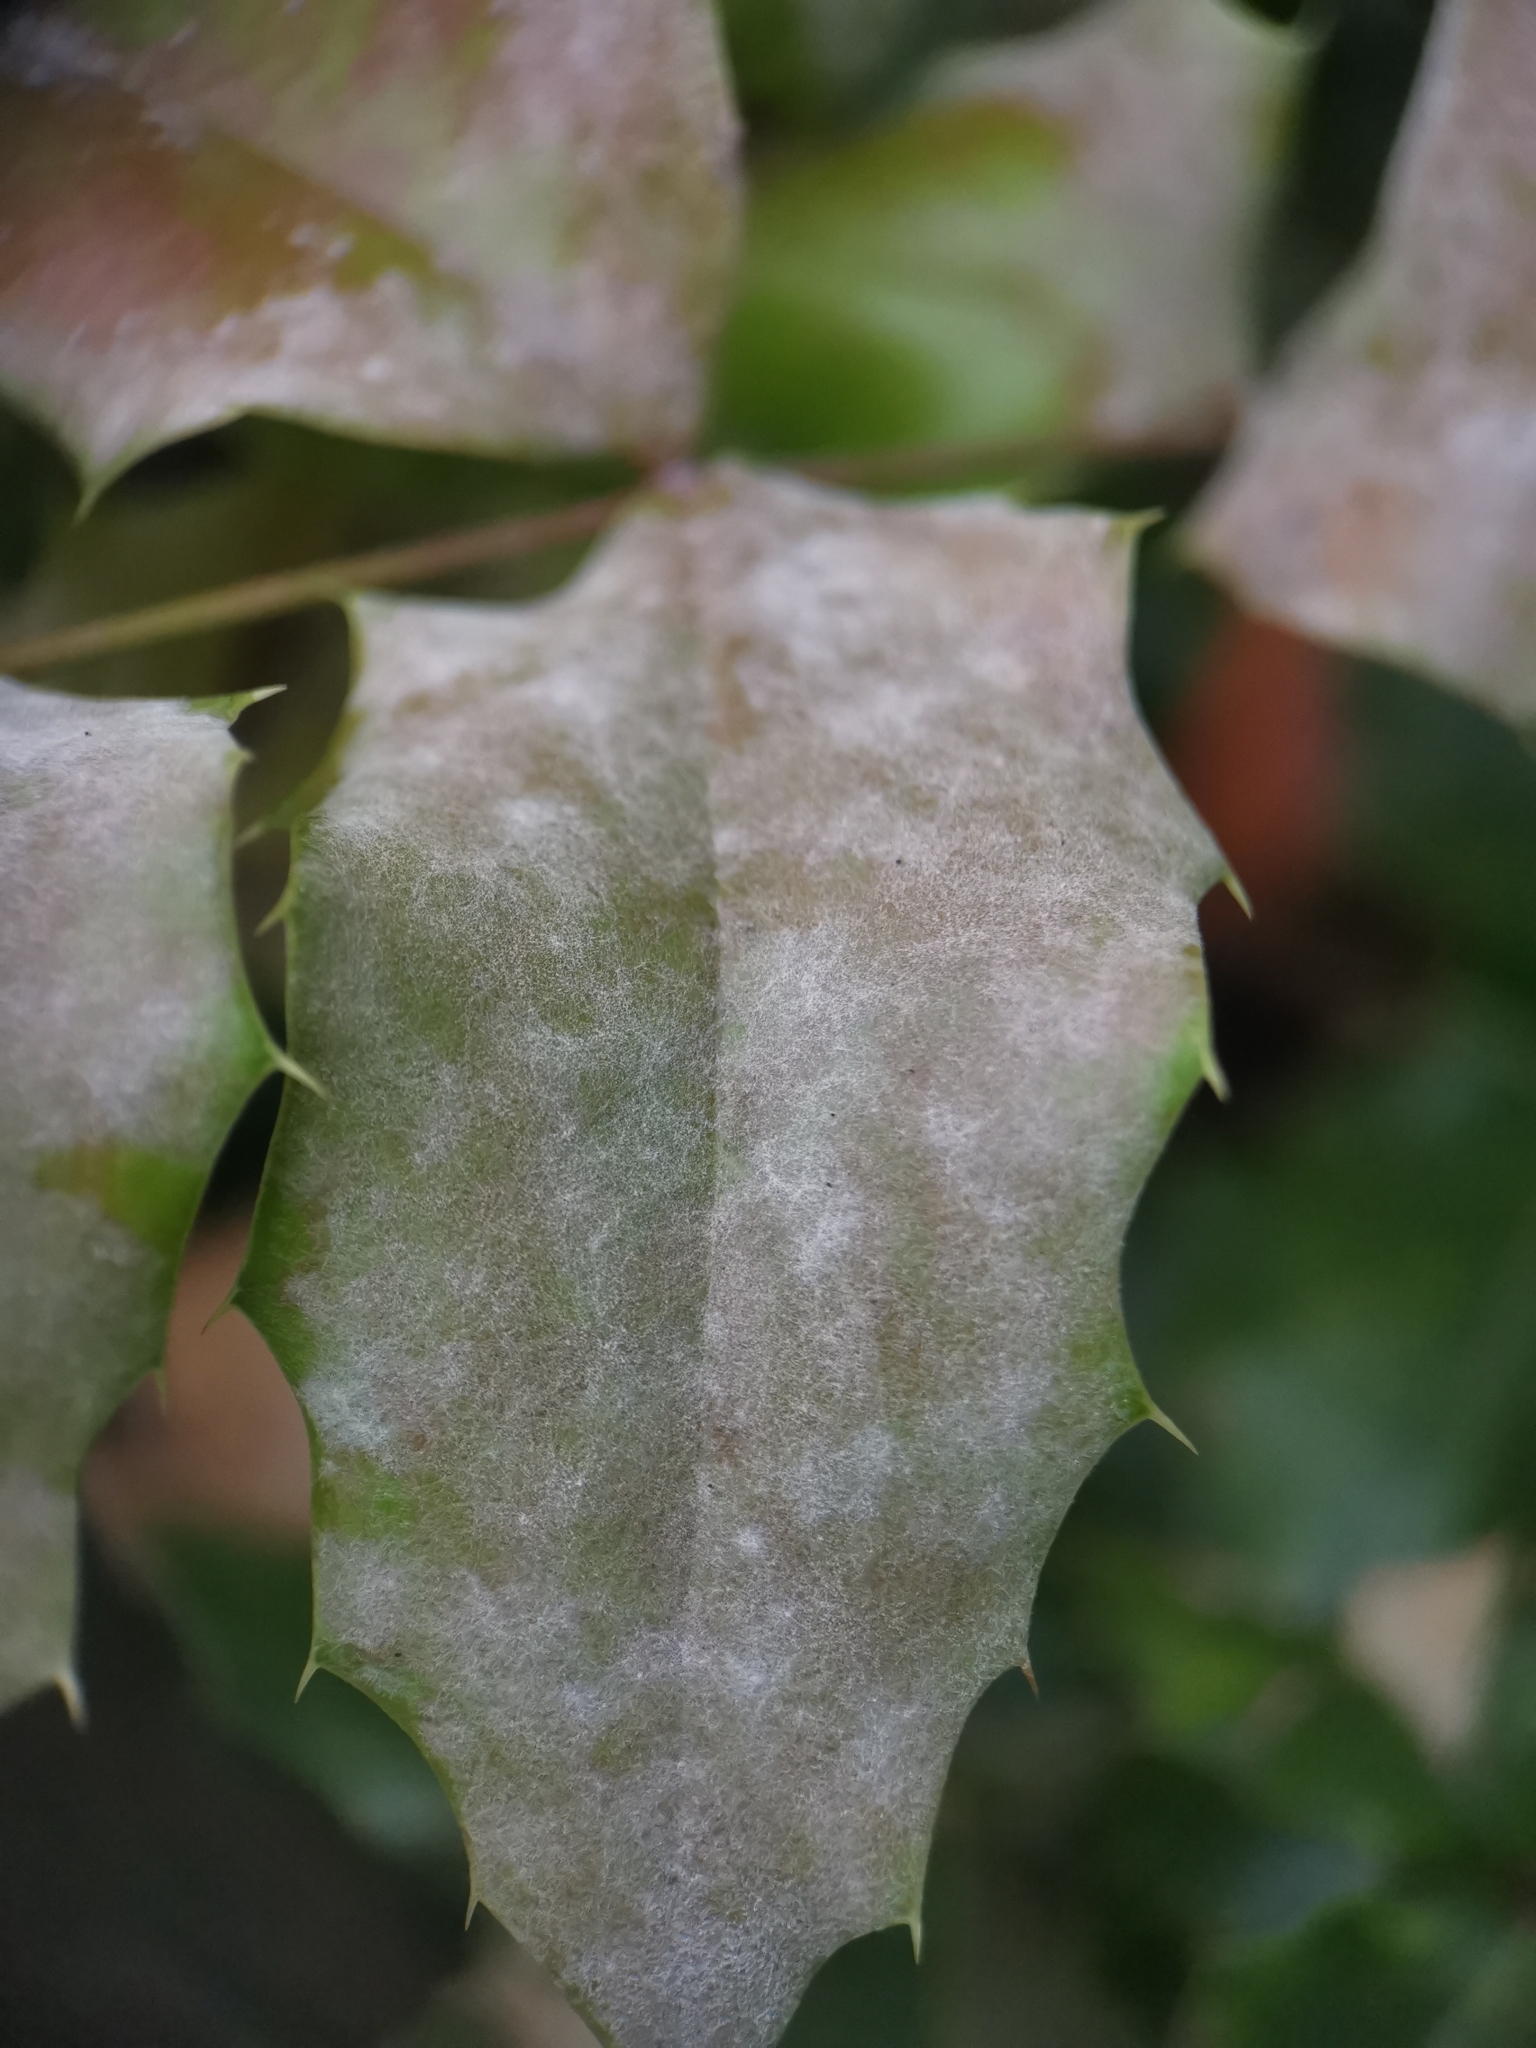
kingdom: Fungi
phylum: Ascomycota
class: Leotiomycetes
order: Helotiales
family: Erysiphaceae
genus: Erysiphe
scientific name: Erysiphe berberidis
